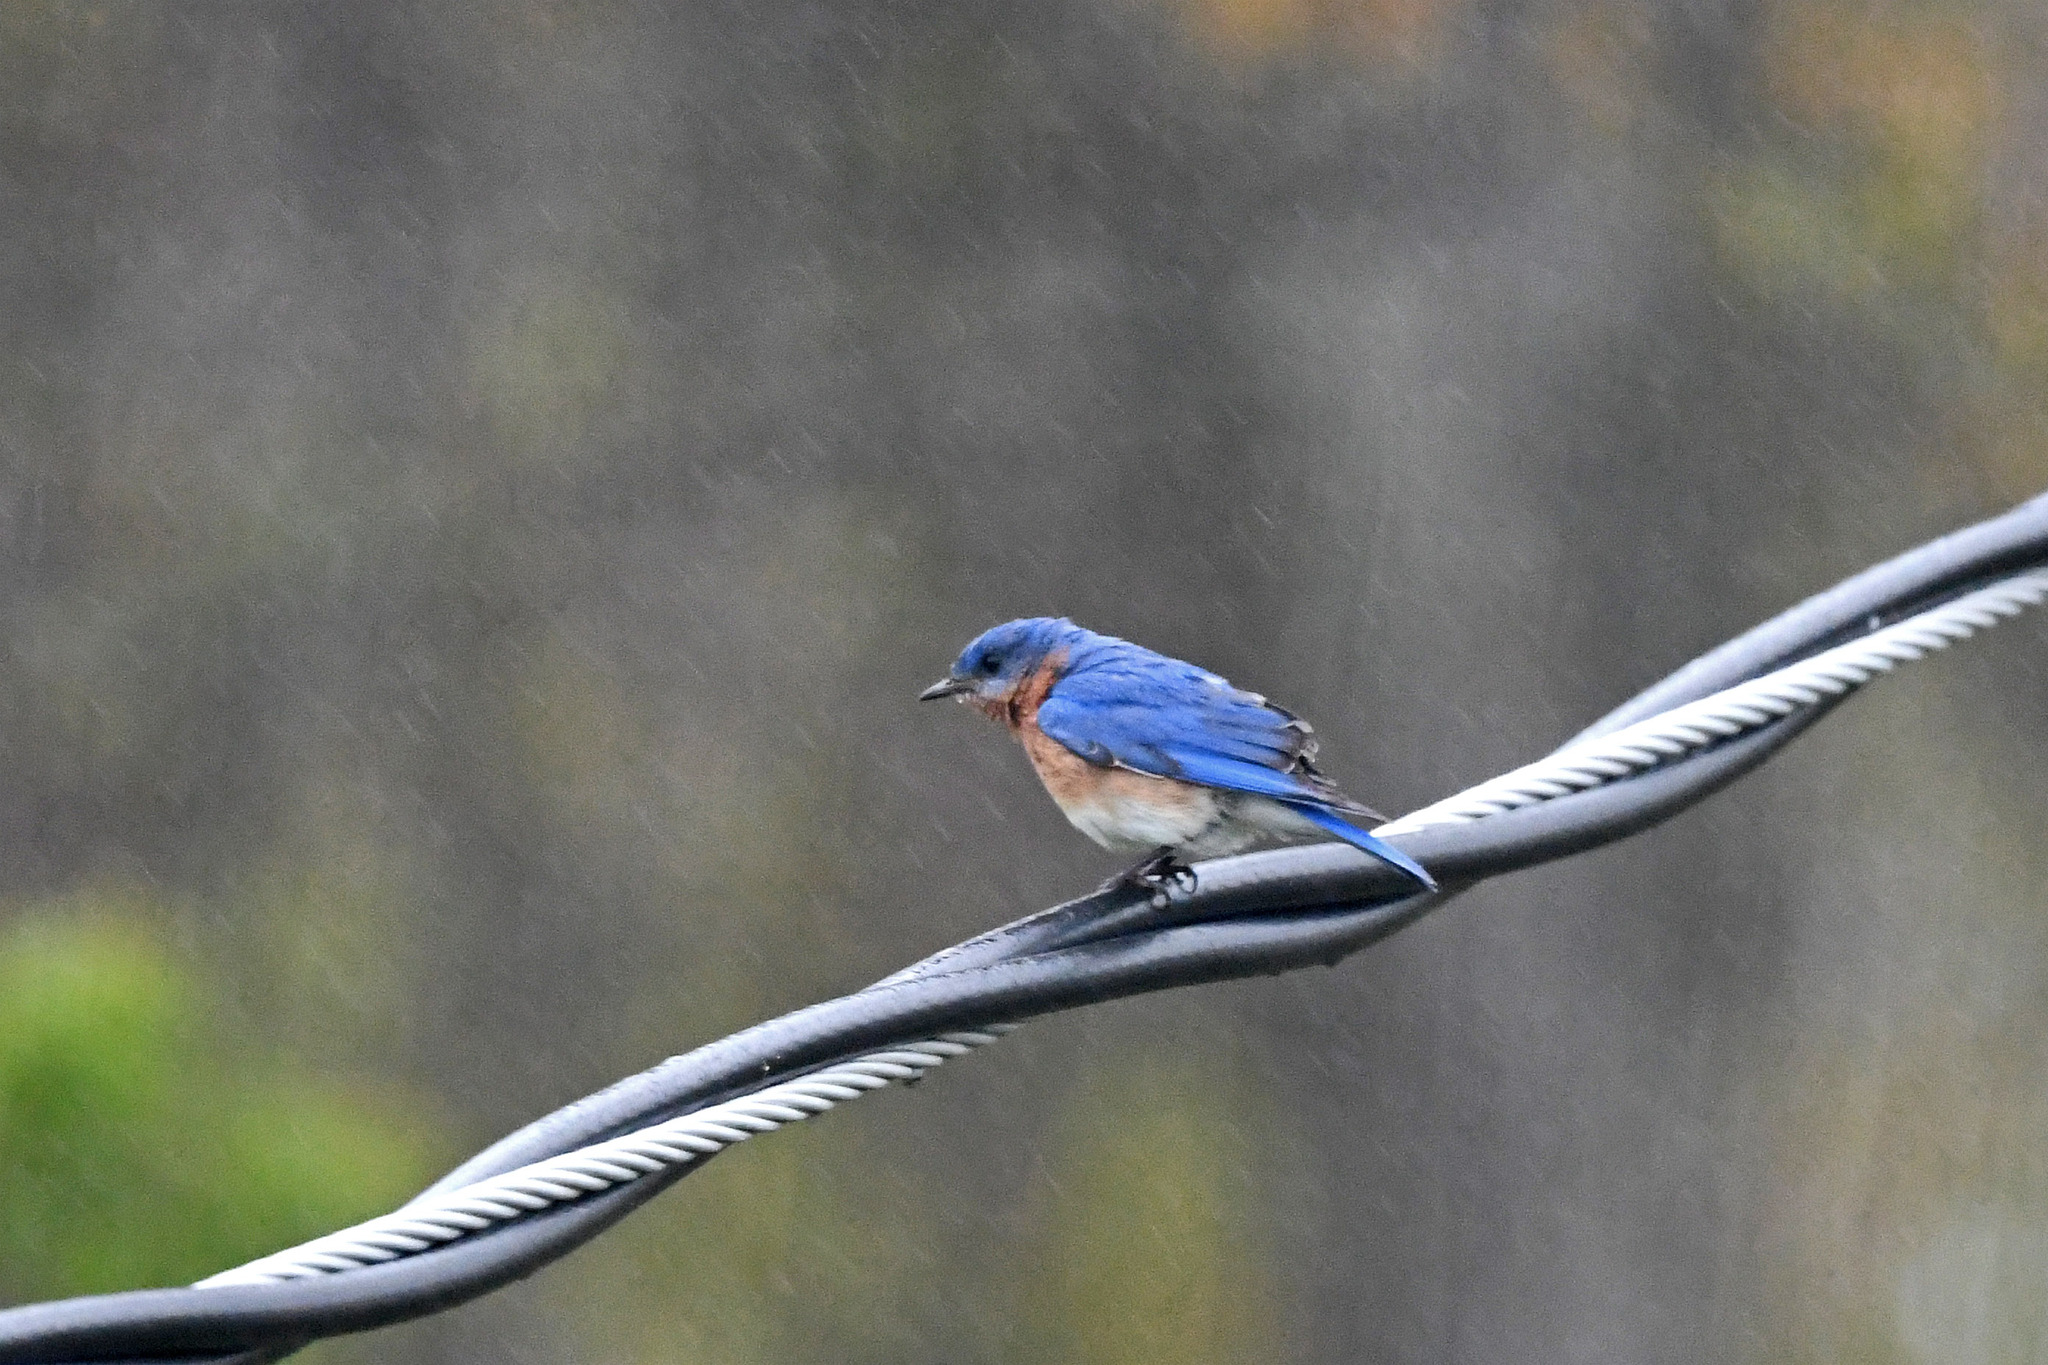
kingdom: Animalia
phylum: Chordata
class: Aves
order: Passeriformes
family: Turdidae
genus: Sialia
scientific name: Sialia sialis
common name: Eastern bluebird
